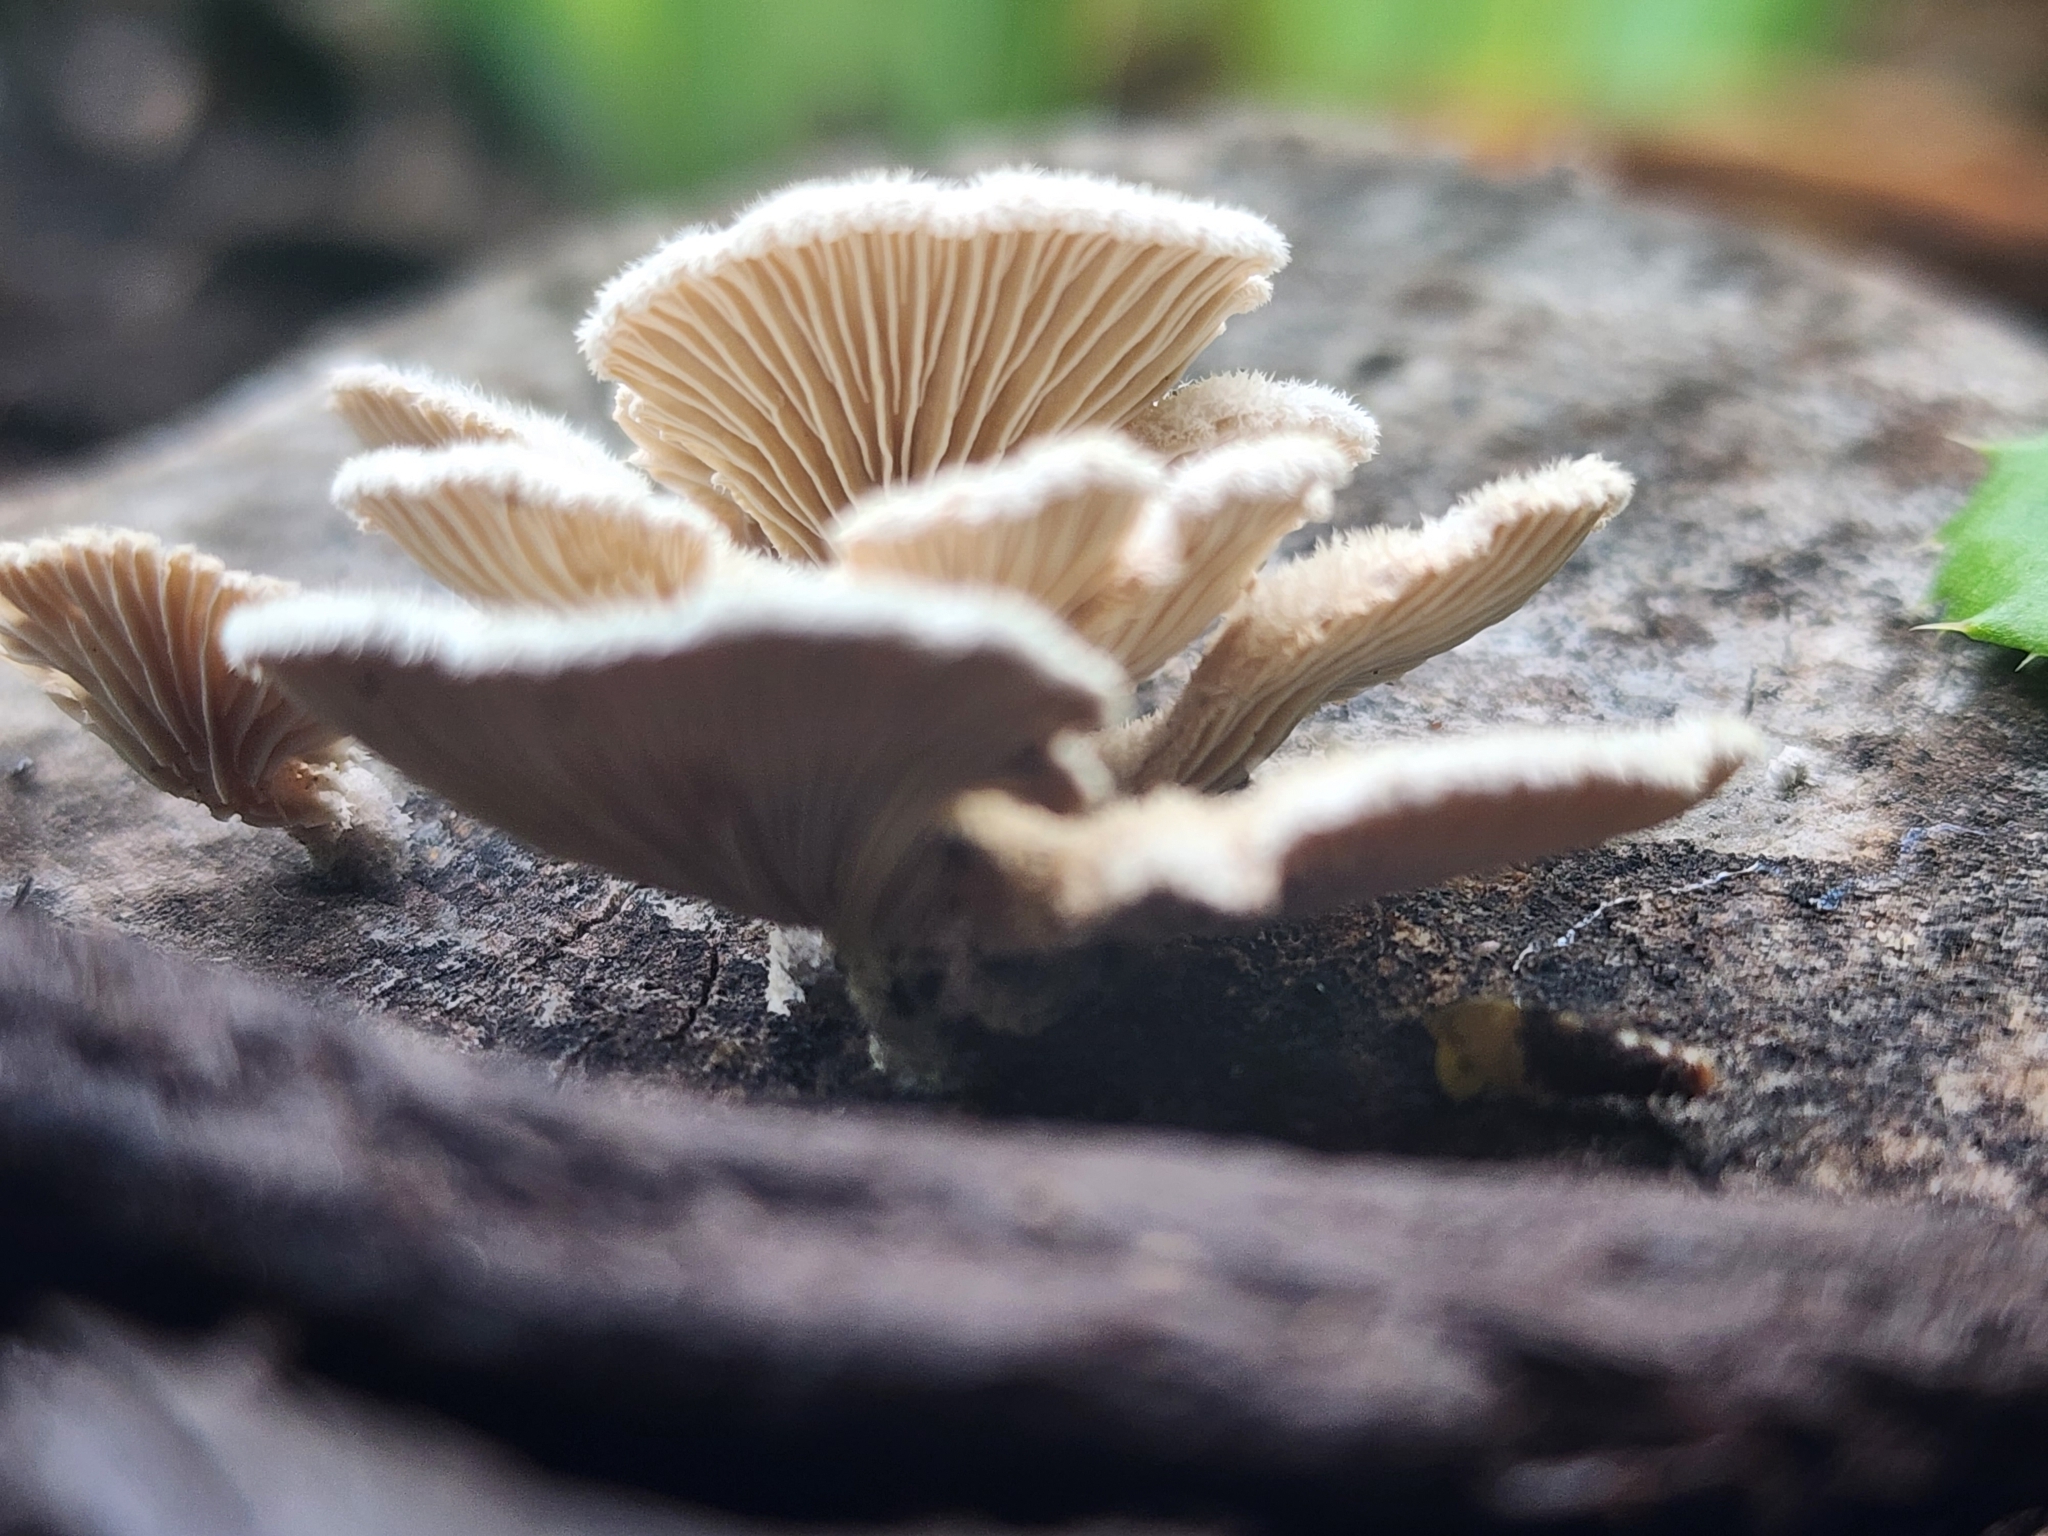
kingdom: Fungi
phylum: Basidiomycota
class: Agaricomycetes
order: Agaricales
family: Schizophyllaceae
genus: Schizophyllum
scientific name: Schizophyllum commune
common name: Common porecrust
